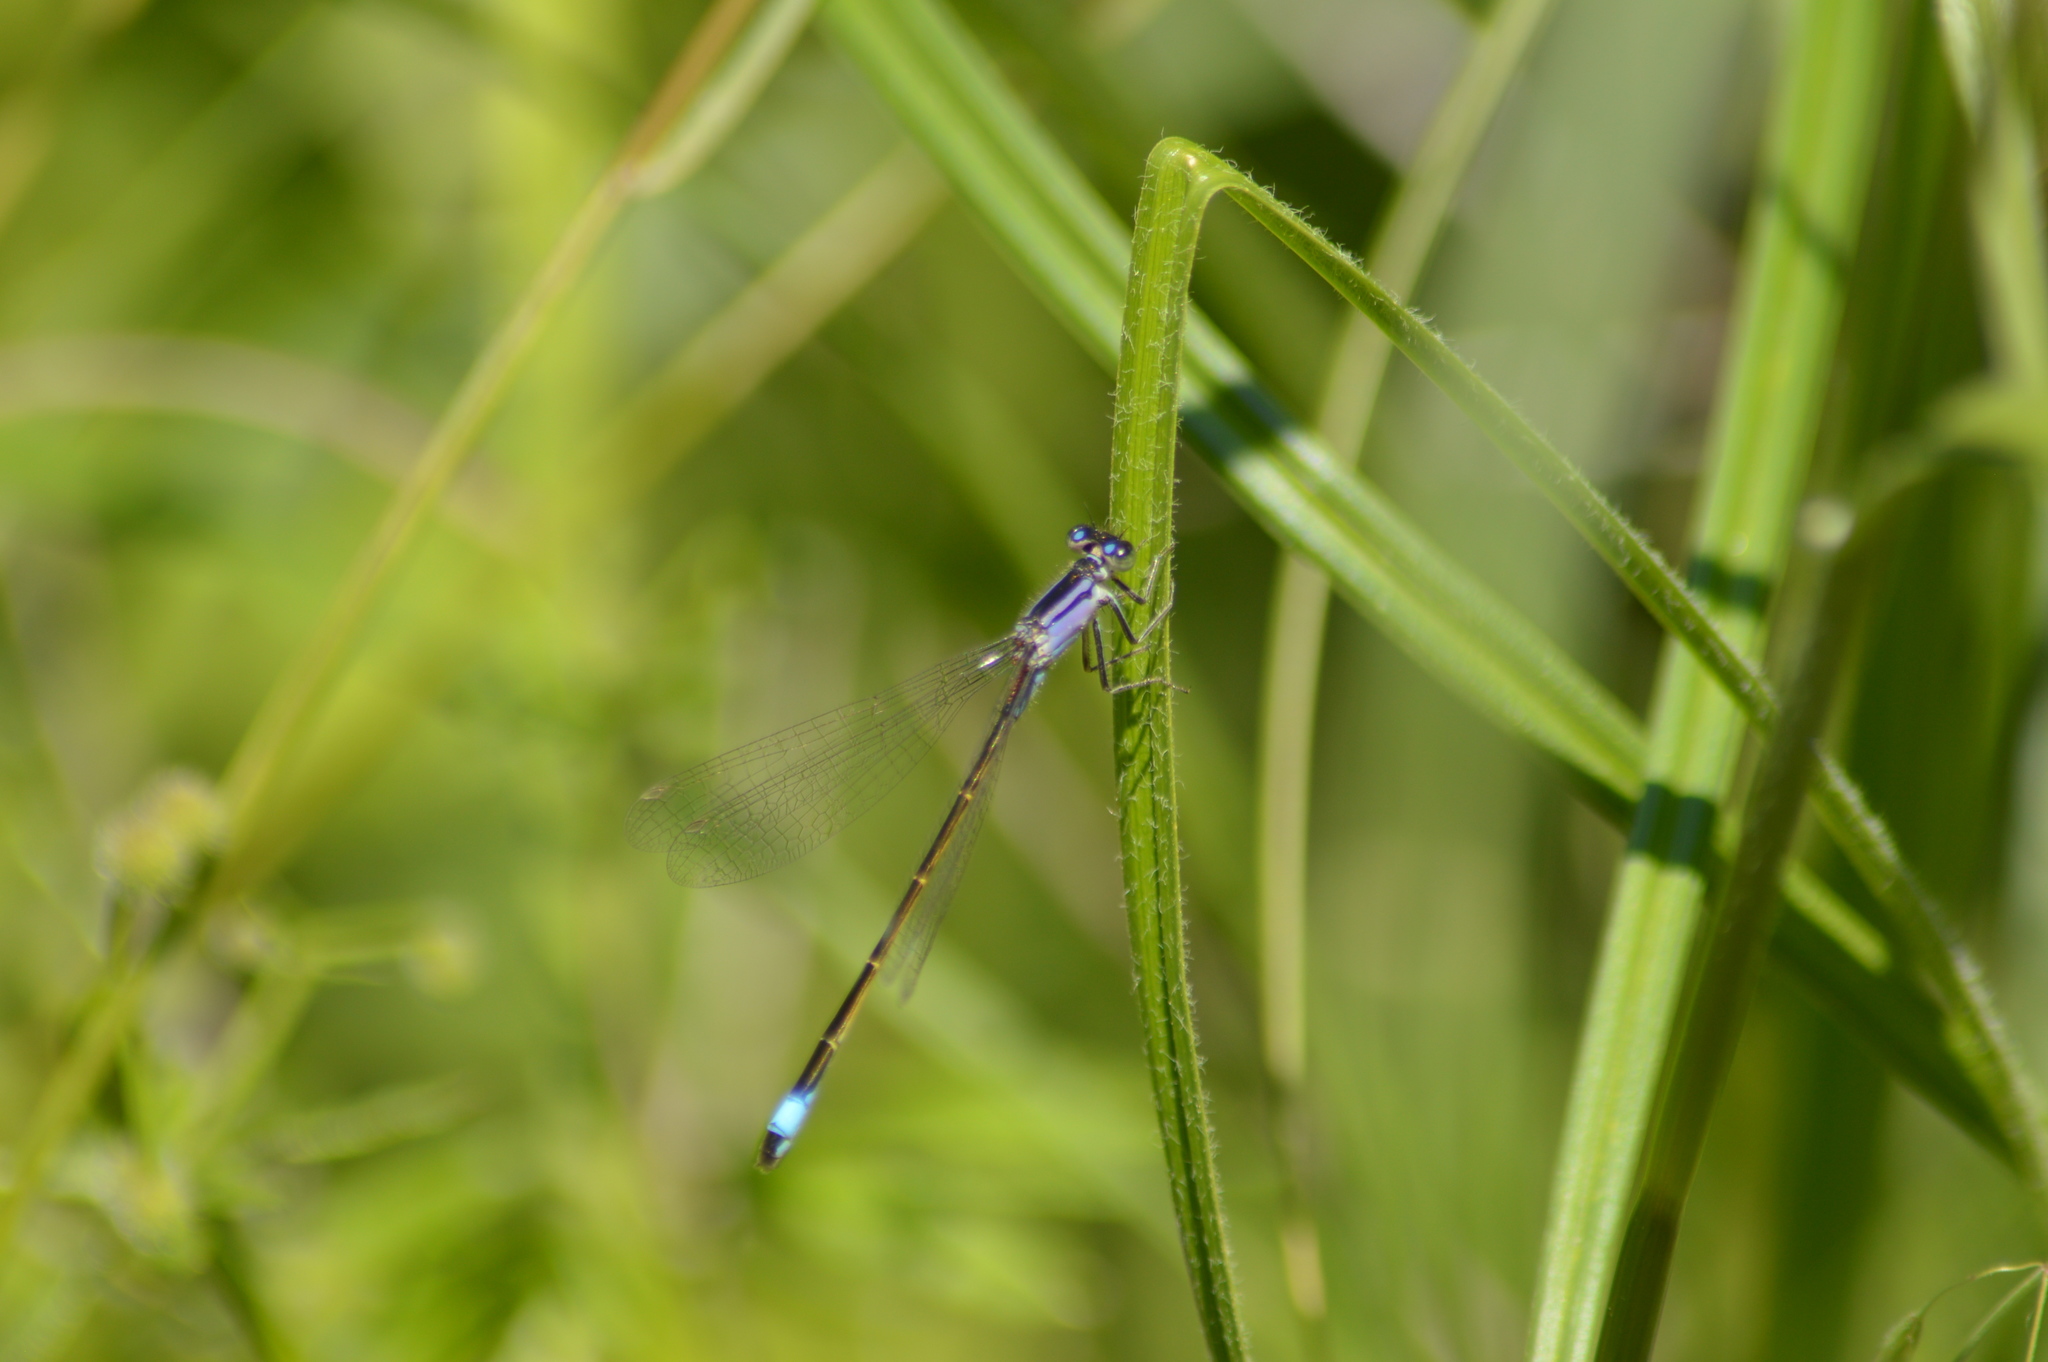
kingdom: Animalia
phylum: Arthropoda
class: Insecta
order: Odonata
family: Coenagrionidae
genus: Ischnura
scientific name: Ischnura elegans
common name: Blue-tailed damselfly
